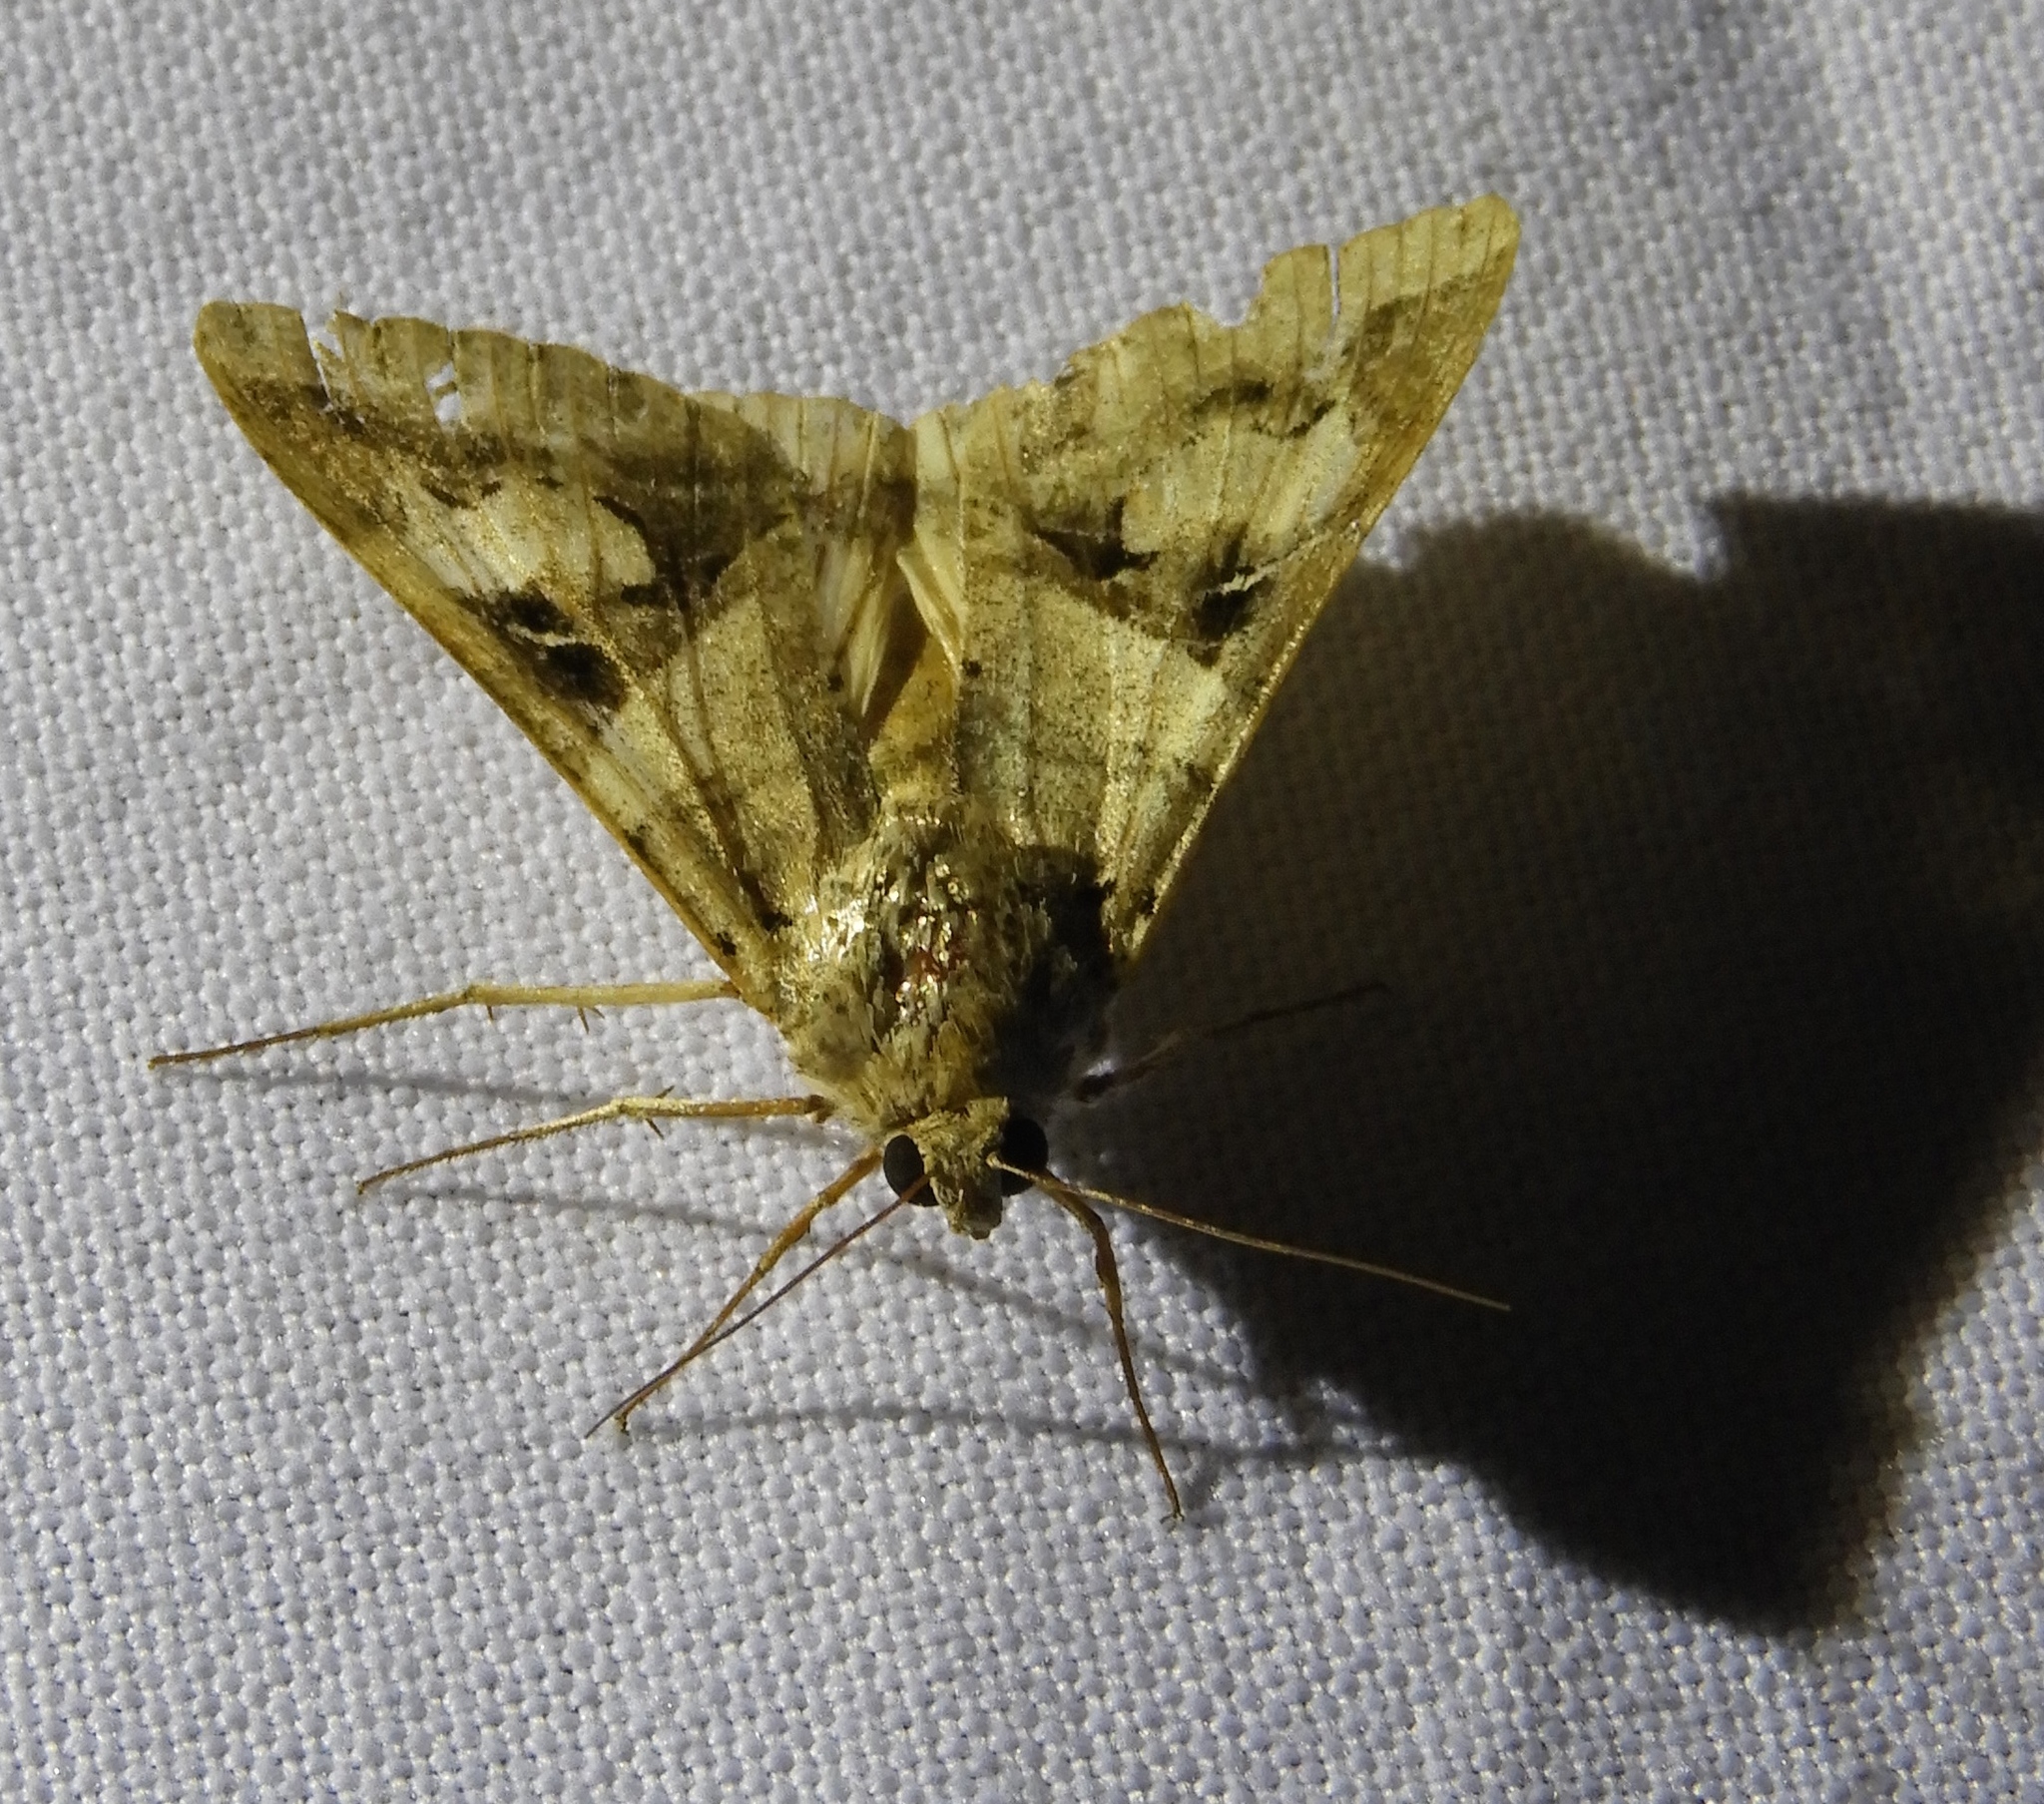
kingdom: Animalia
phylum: Arthropoda
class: Insecta
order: Lepidoptera
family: Erebidae
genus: Melipotis
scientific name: Melipotis indomita
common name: Moth
